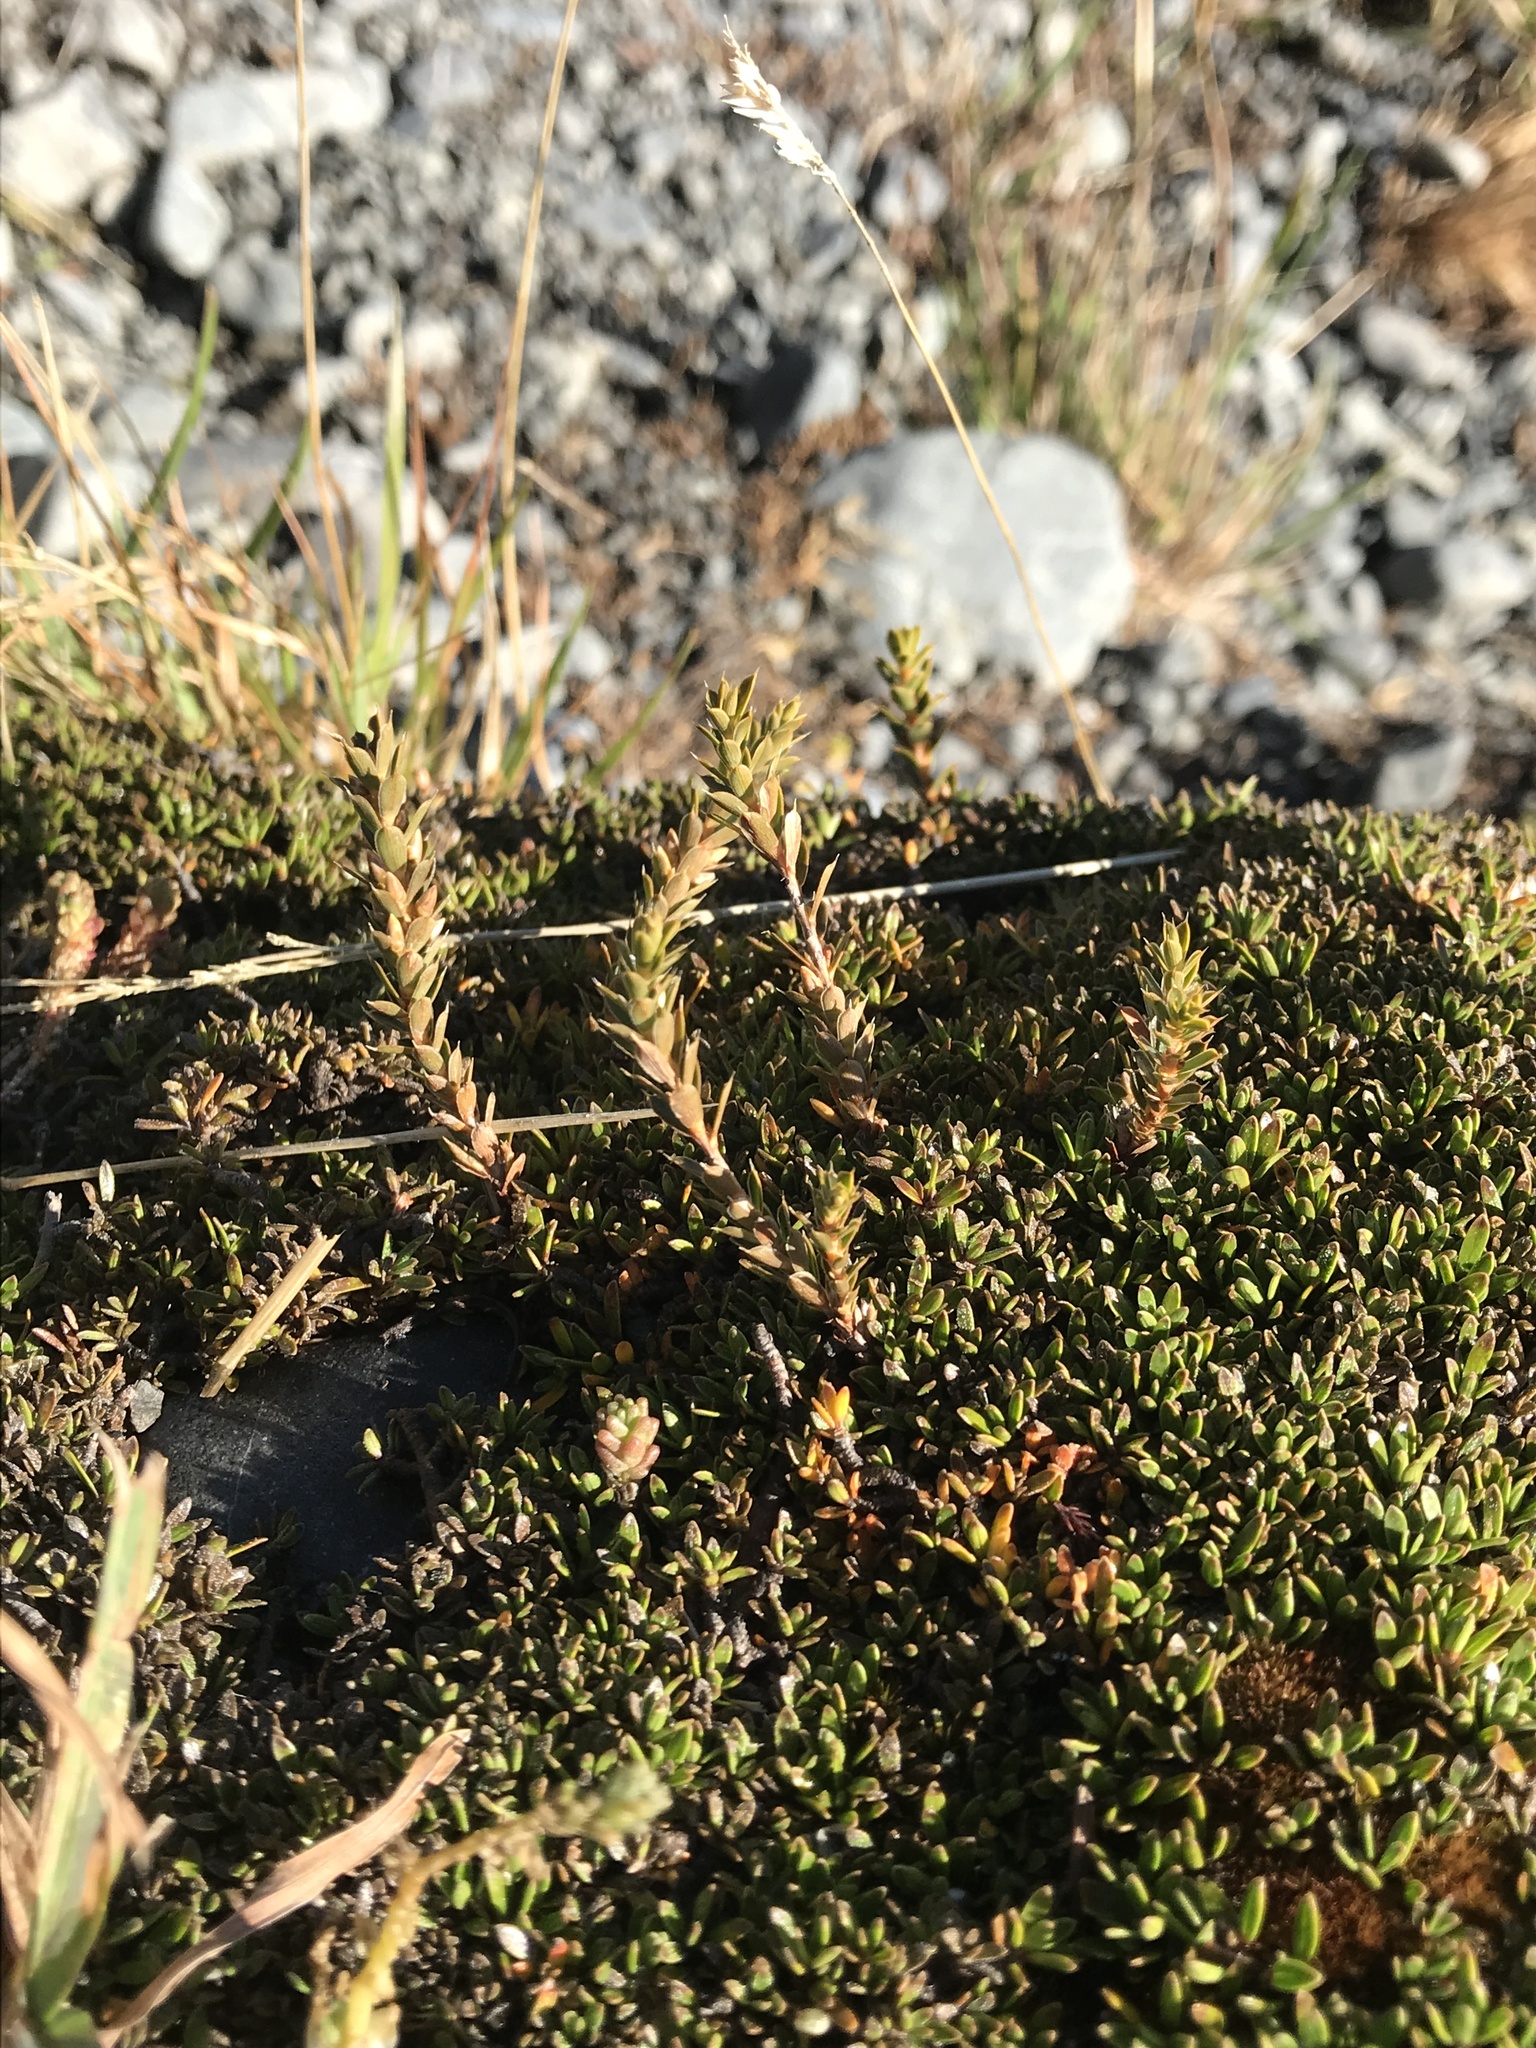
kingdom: Plantae
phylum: Tracheophyta
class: Magnoliopsida
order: Ericales
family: Ericaceae
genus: Styphelia
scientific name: Styphelia nesophila
